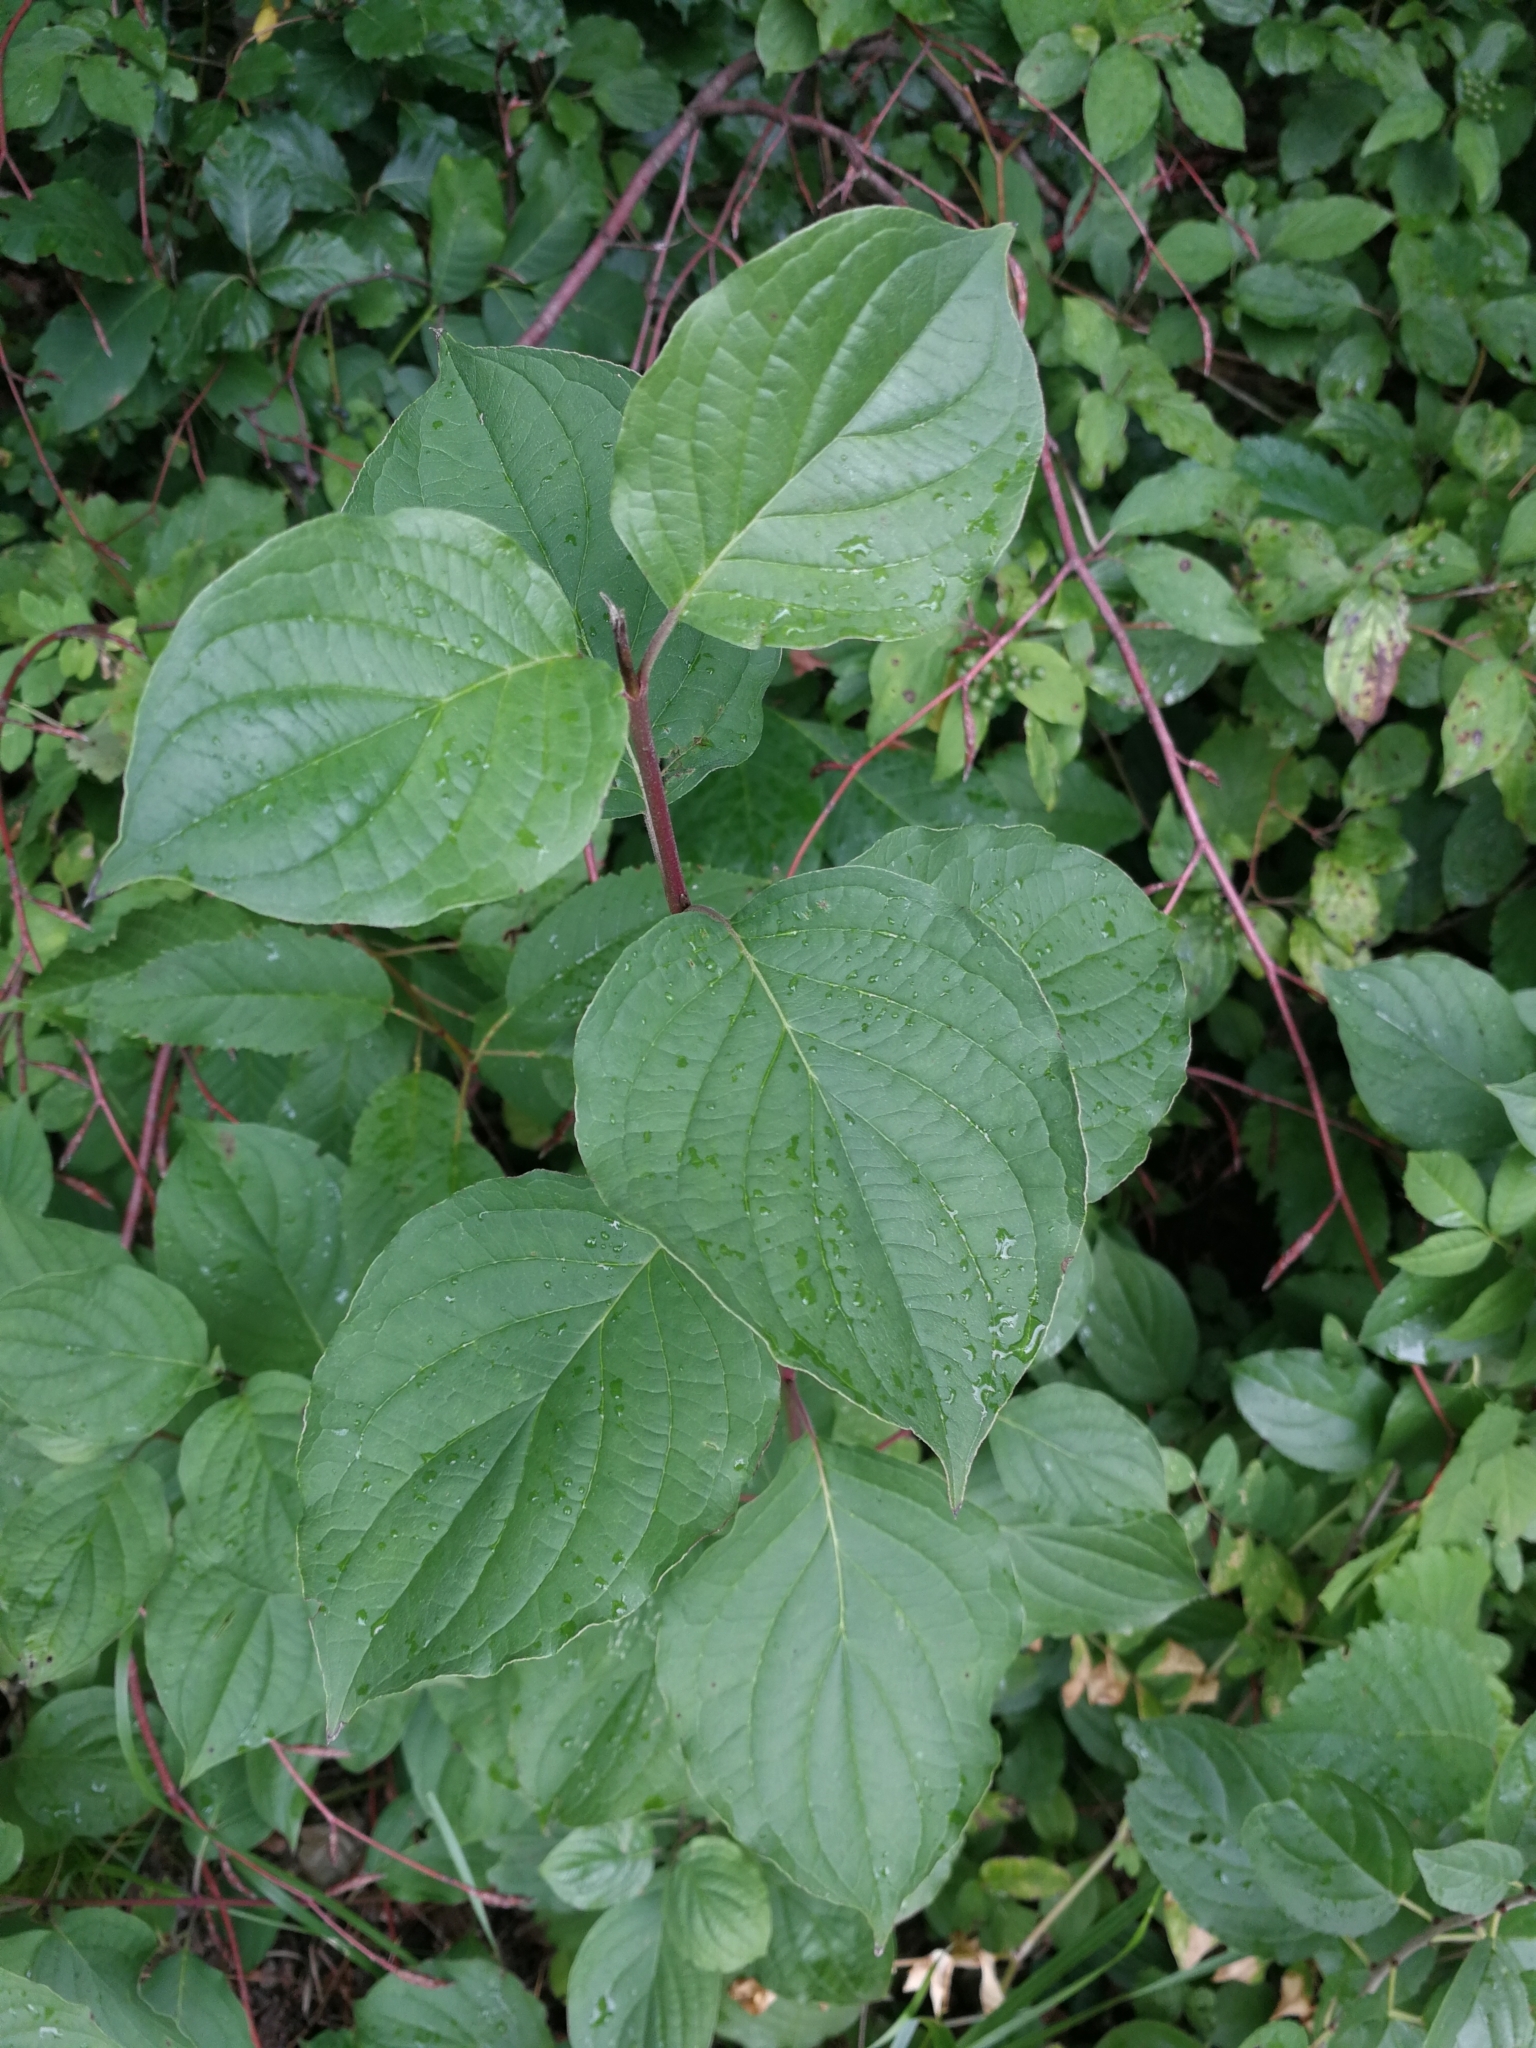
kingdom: Plantae
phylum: Tracheophyta
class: Magnoliopsida
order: Cornales
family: Cornaceae
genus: Cornus
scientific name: Cornus sanguinea
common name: Dogwood
